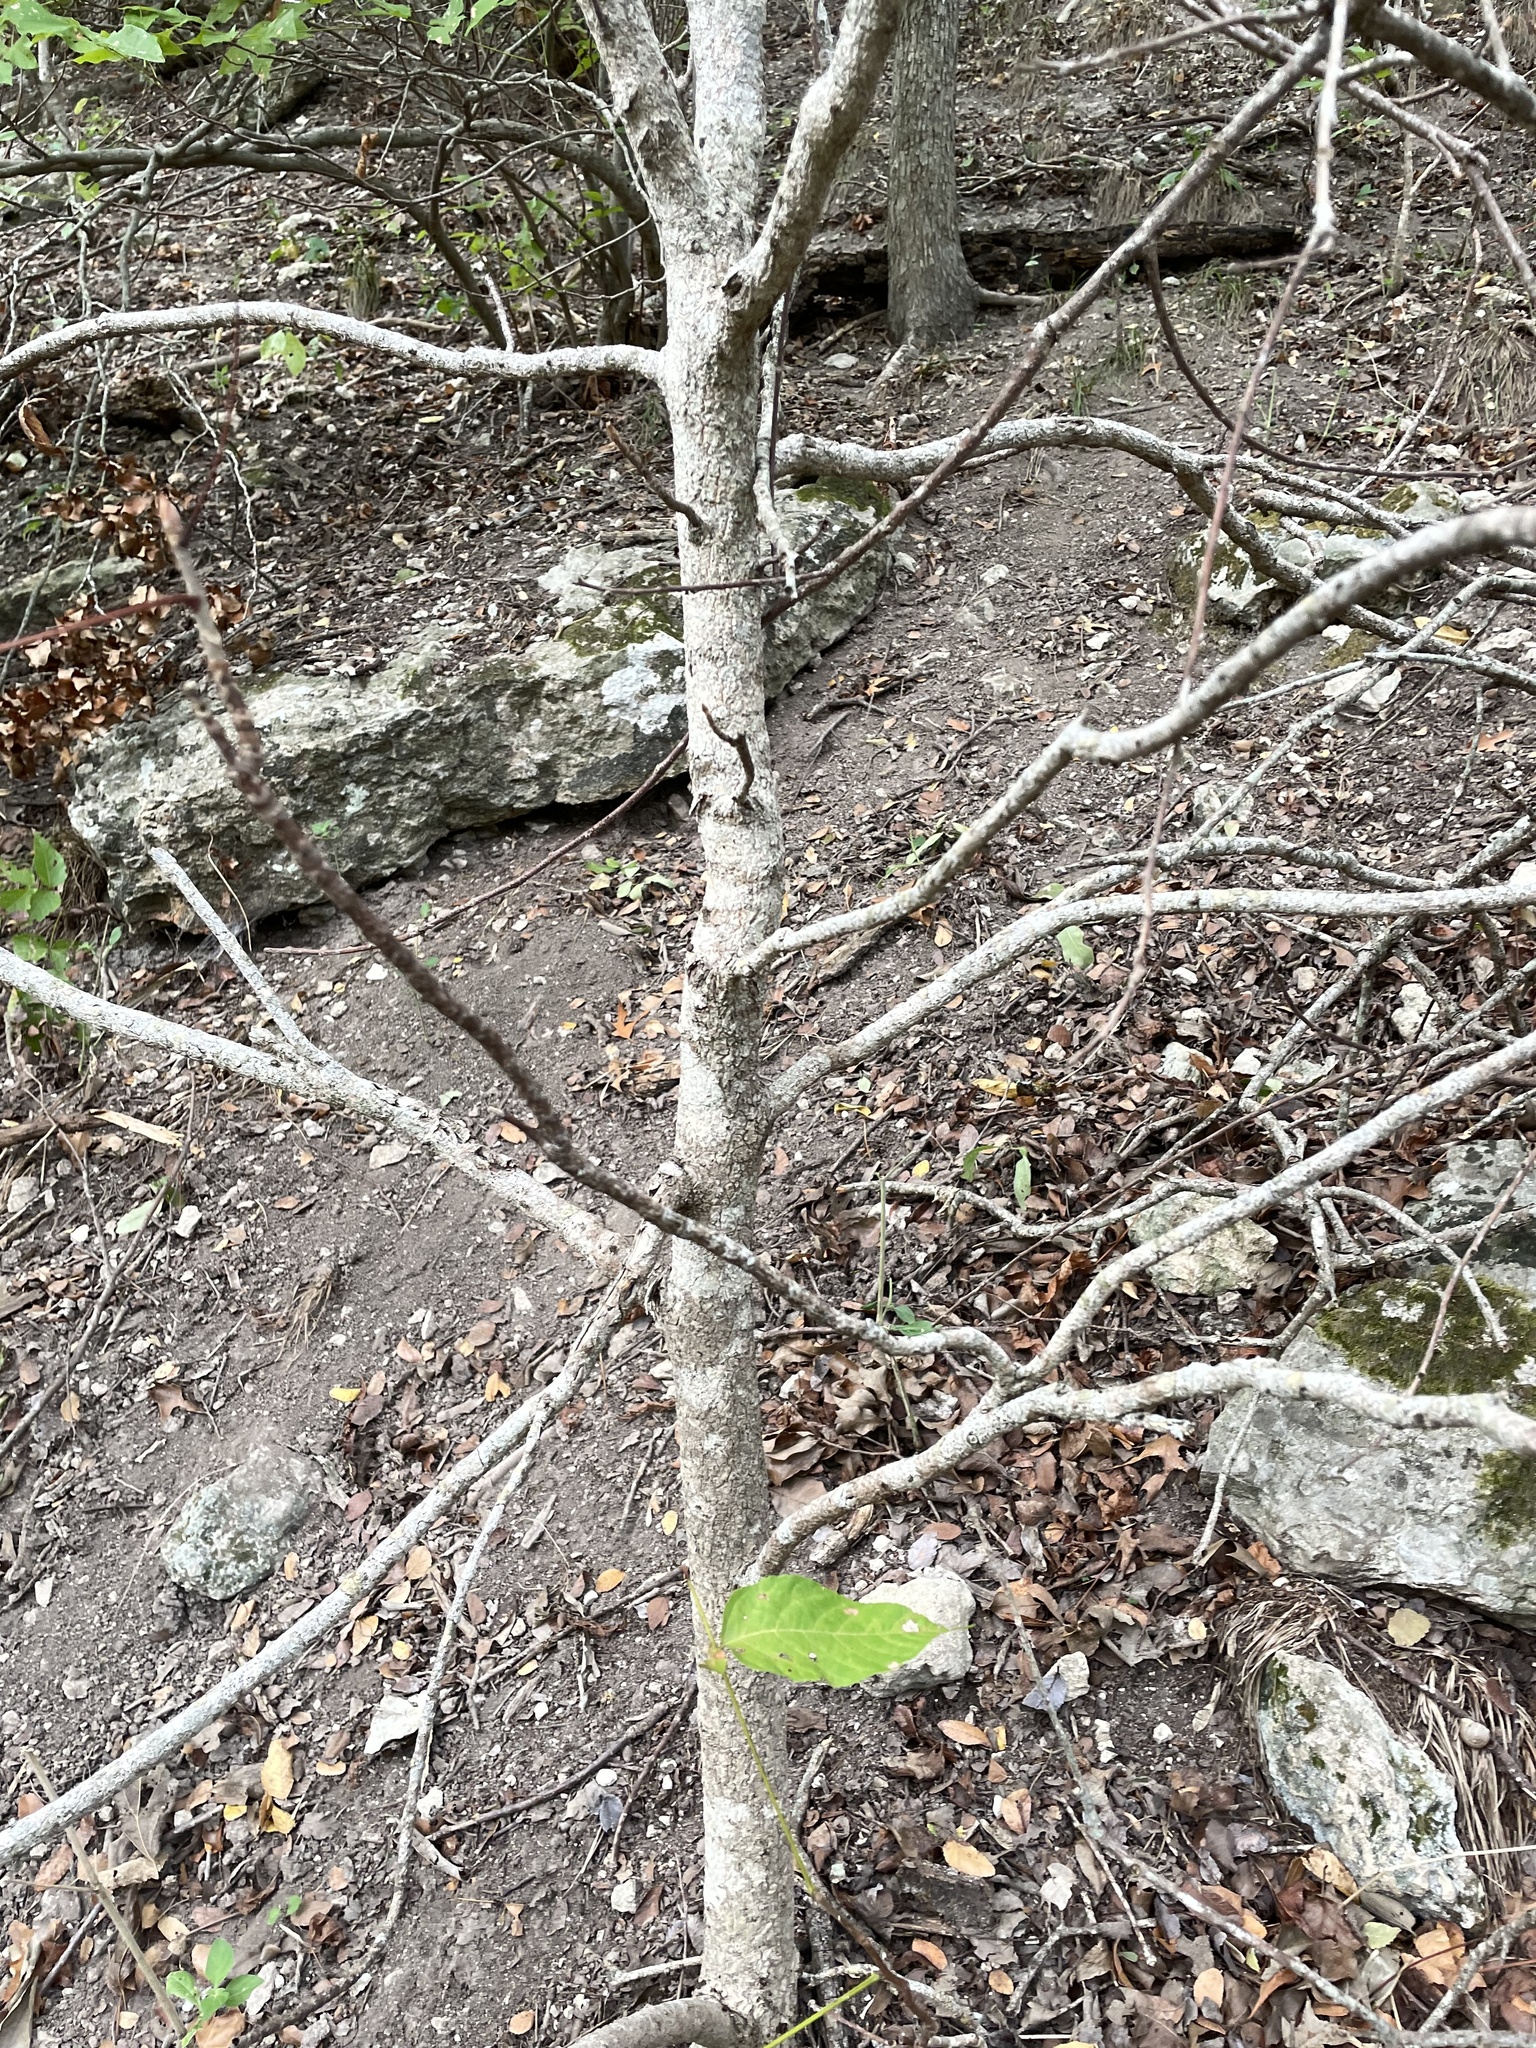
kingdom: Plantae
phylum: Tracheophyta
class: Magnoliopsida
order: Sapindales
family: Sapindaceae
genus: Aesculus
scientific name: Aesculus glabra
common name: Ohio buckeye
